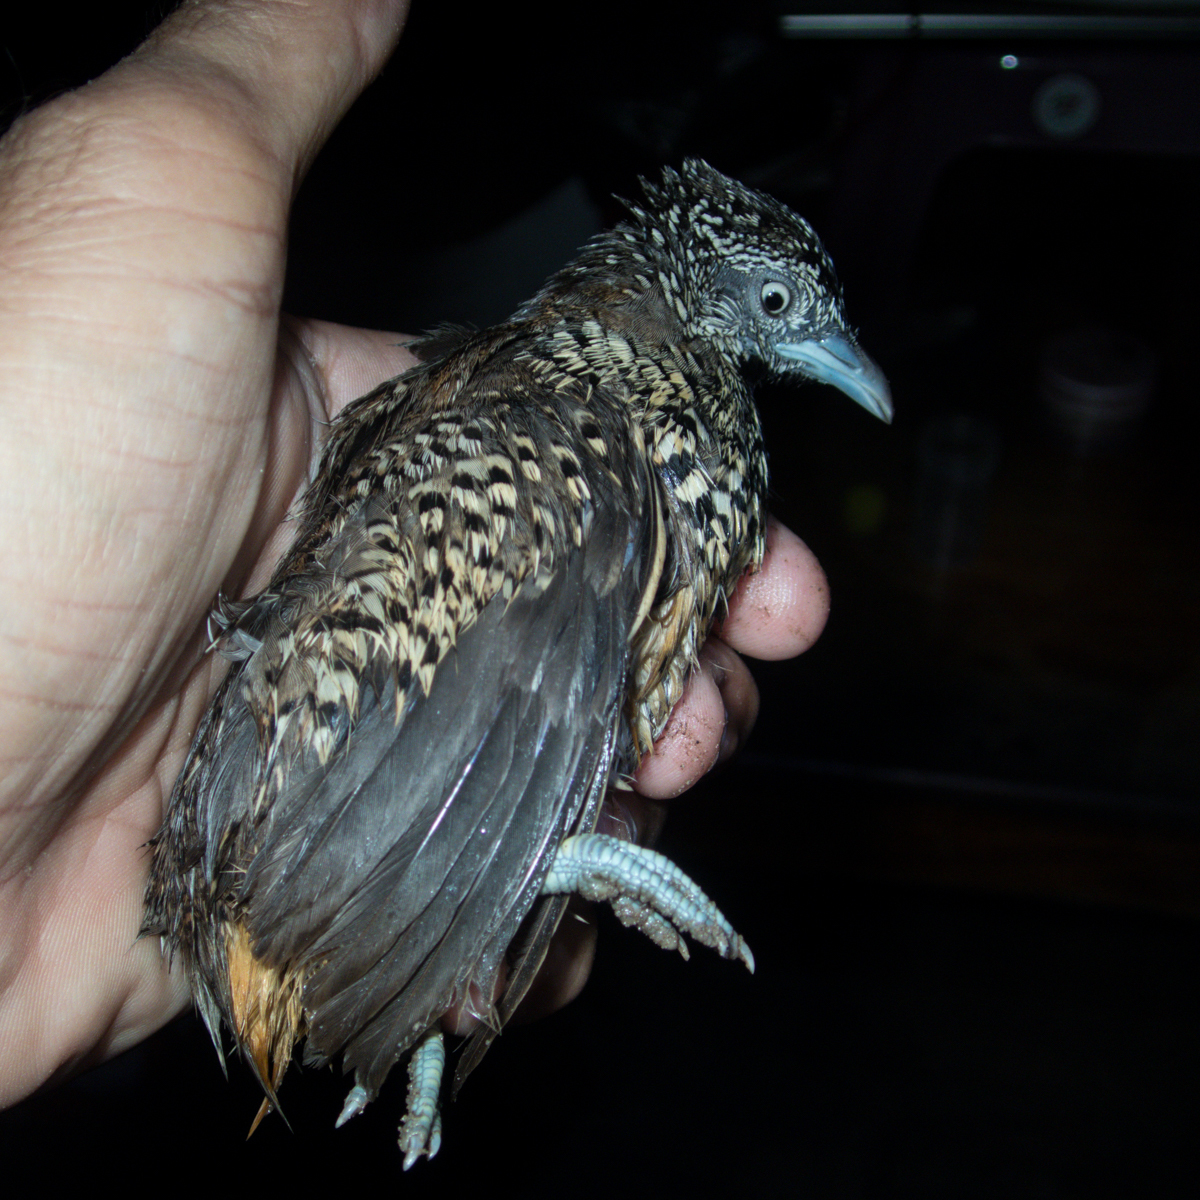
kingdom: Animalia
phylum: Chordata
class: Aves
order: Charadriiformes
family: Turnicidae
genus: Turnix
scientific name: Turnix suscitator
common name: Barred buttonquail
